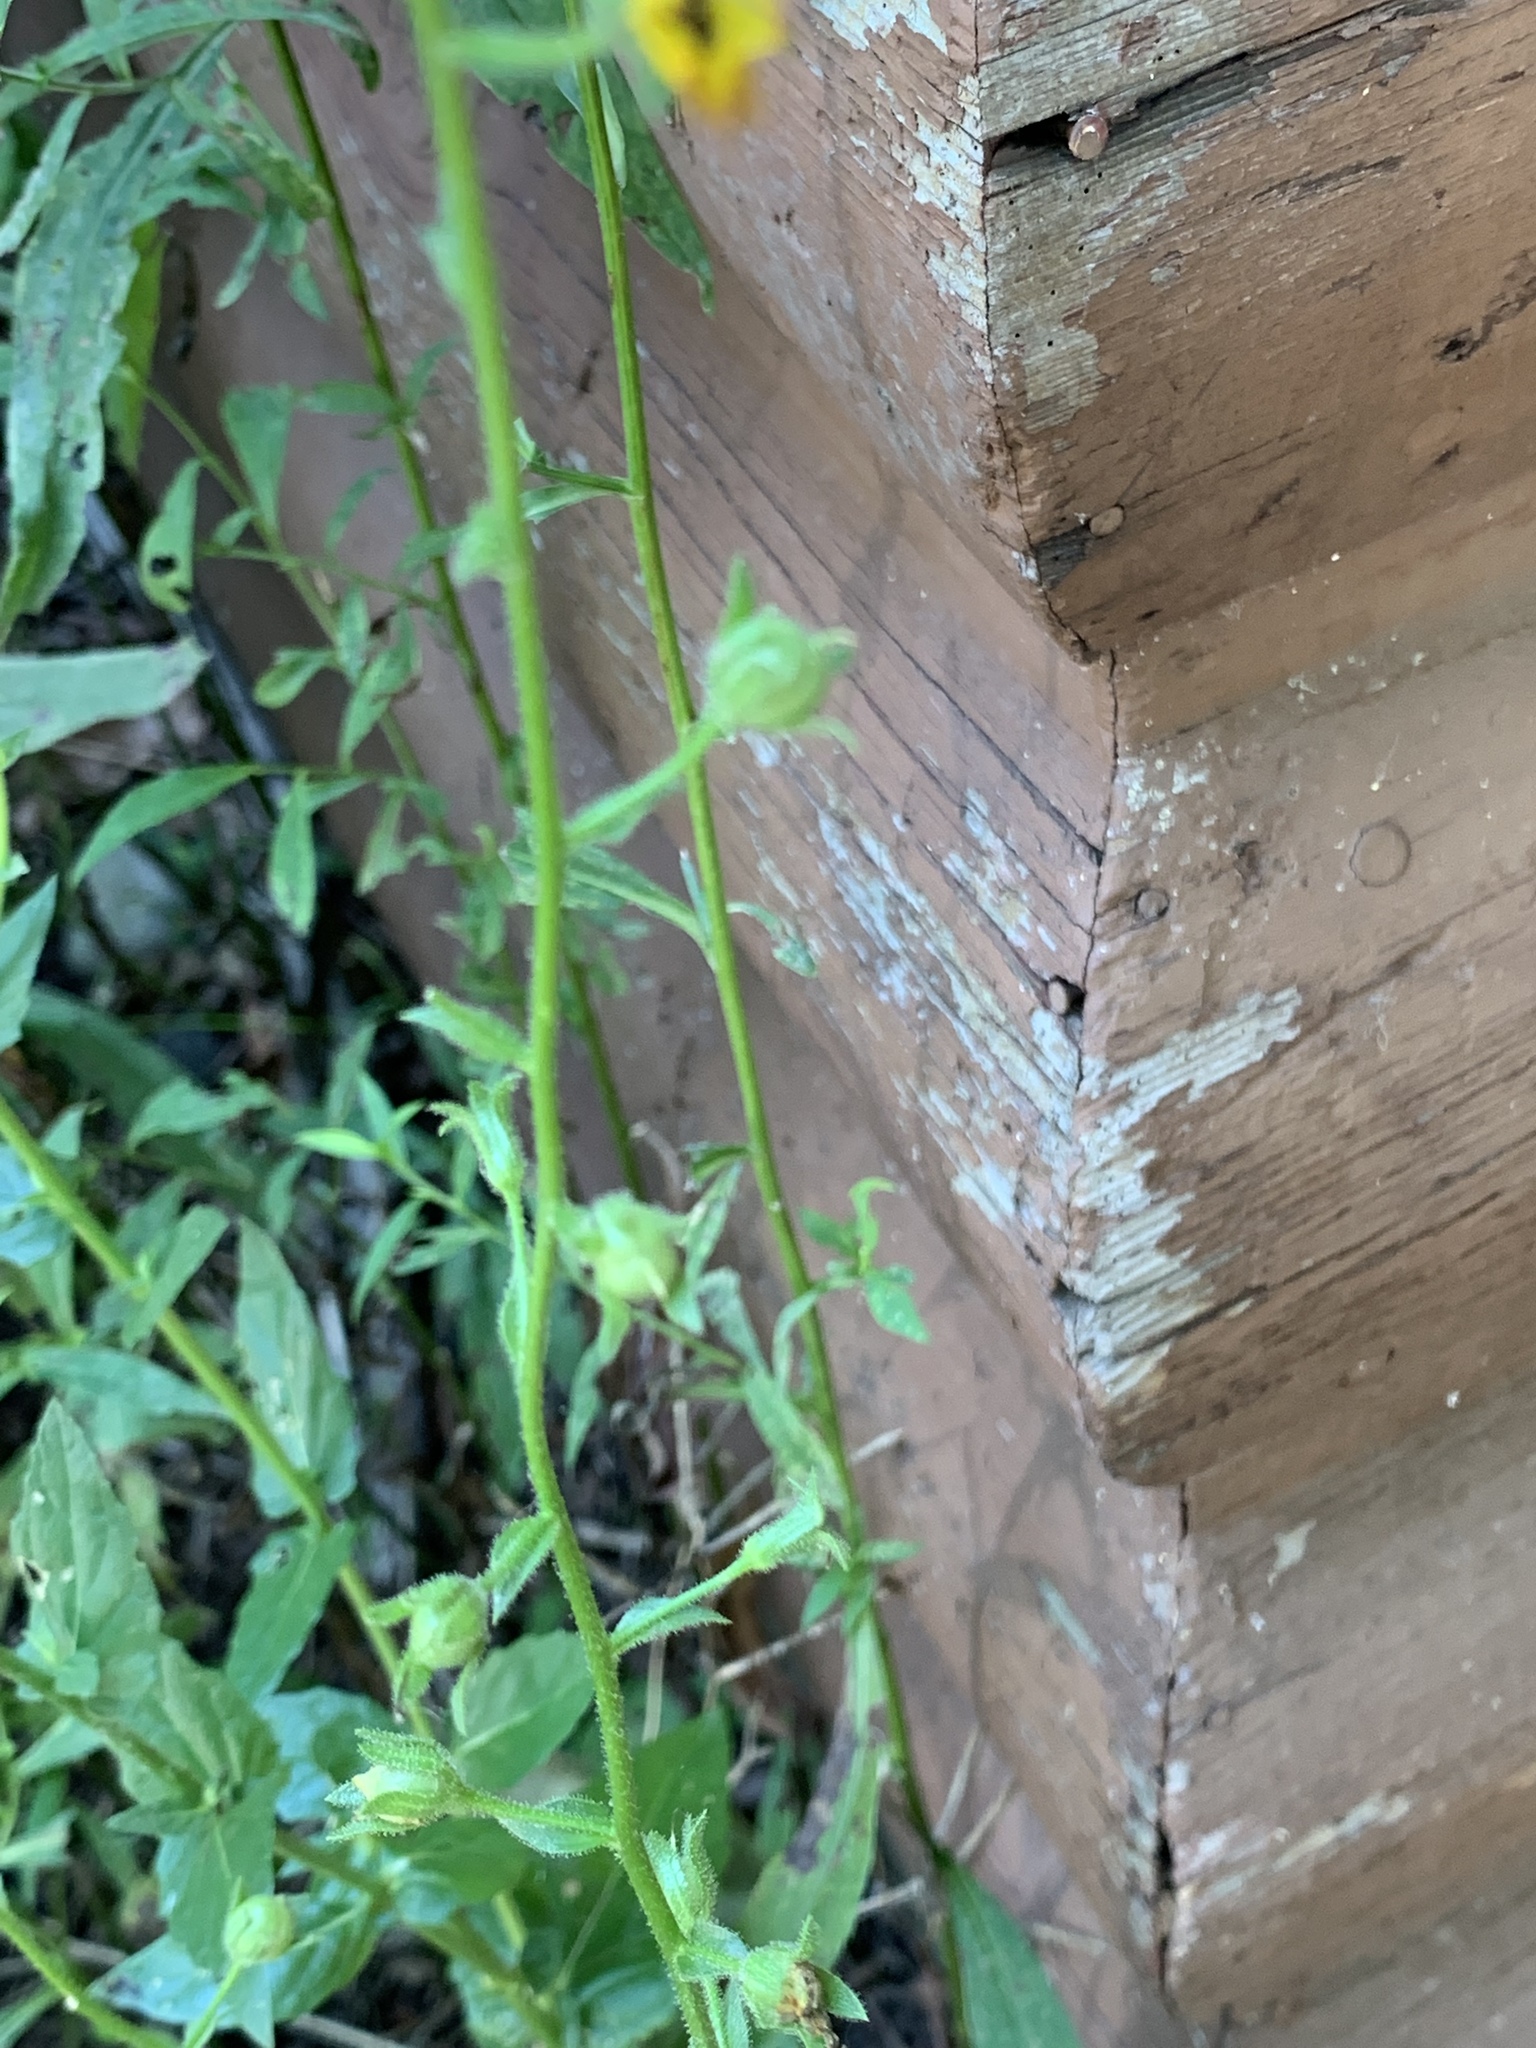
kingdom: Plantae
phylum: Tracheophyta
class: Magnoliopsida
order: Lamiales
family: Scrophulariaceae
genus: Verbascum
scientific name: Verbascum blattaria
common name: Moth mullein
